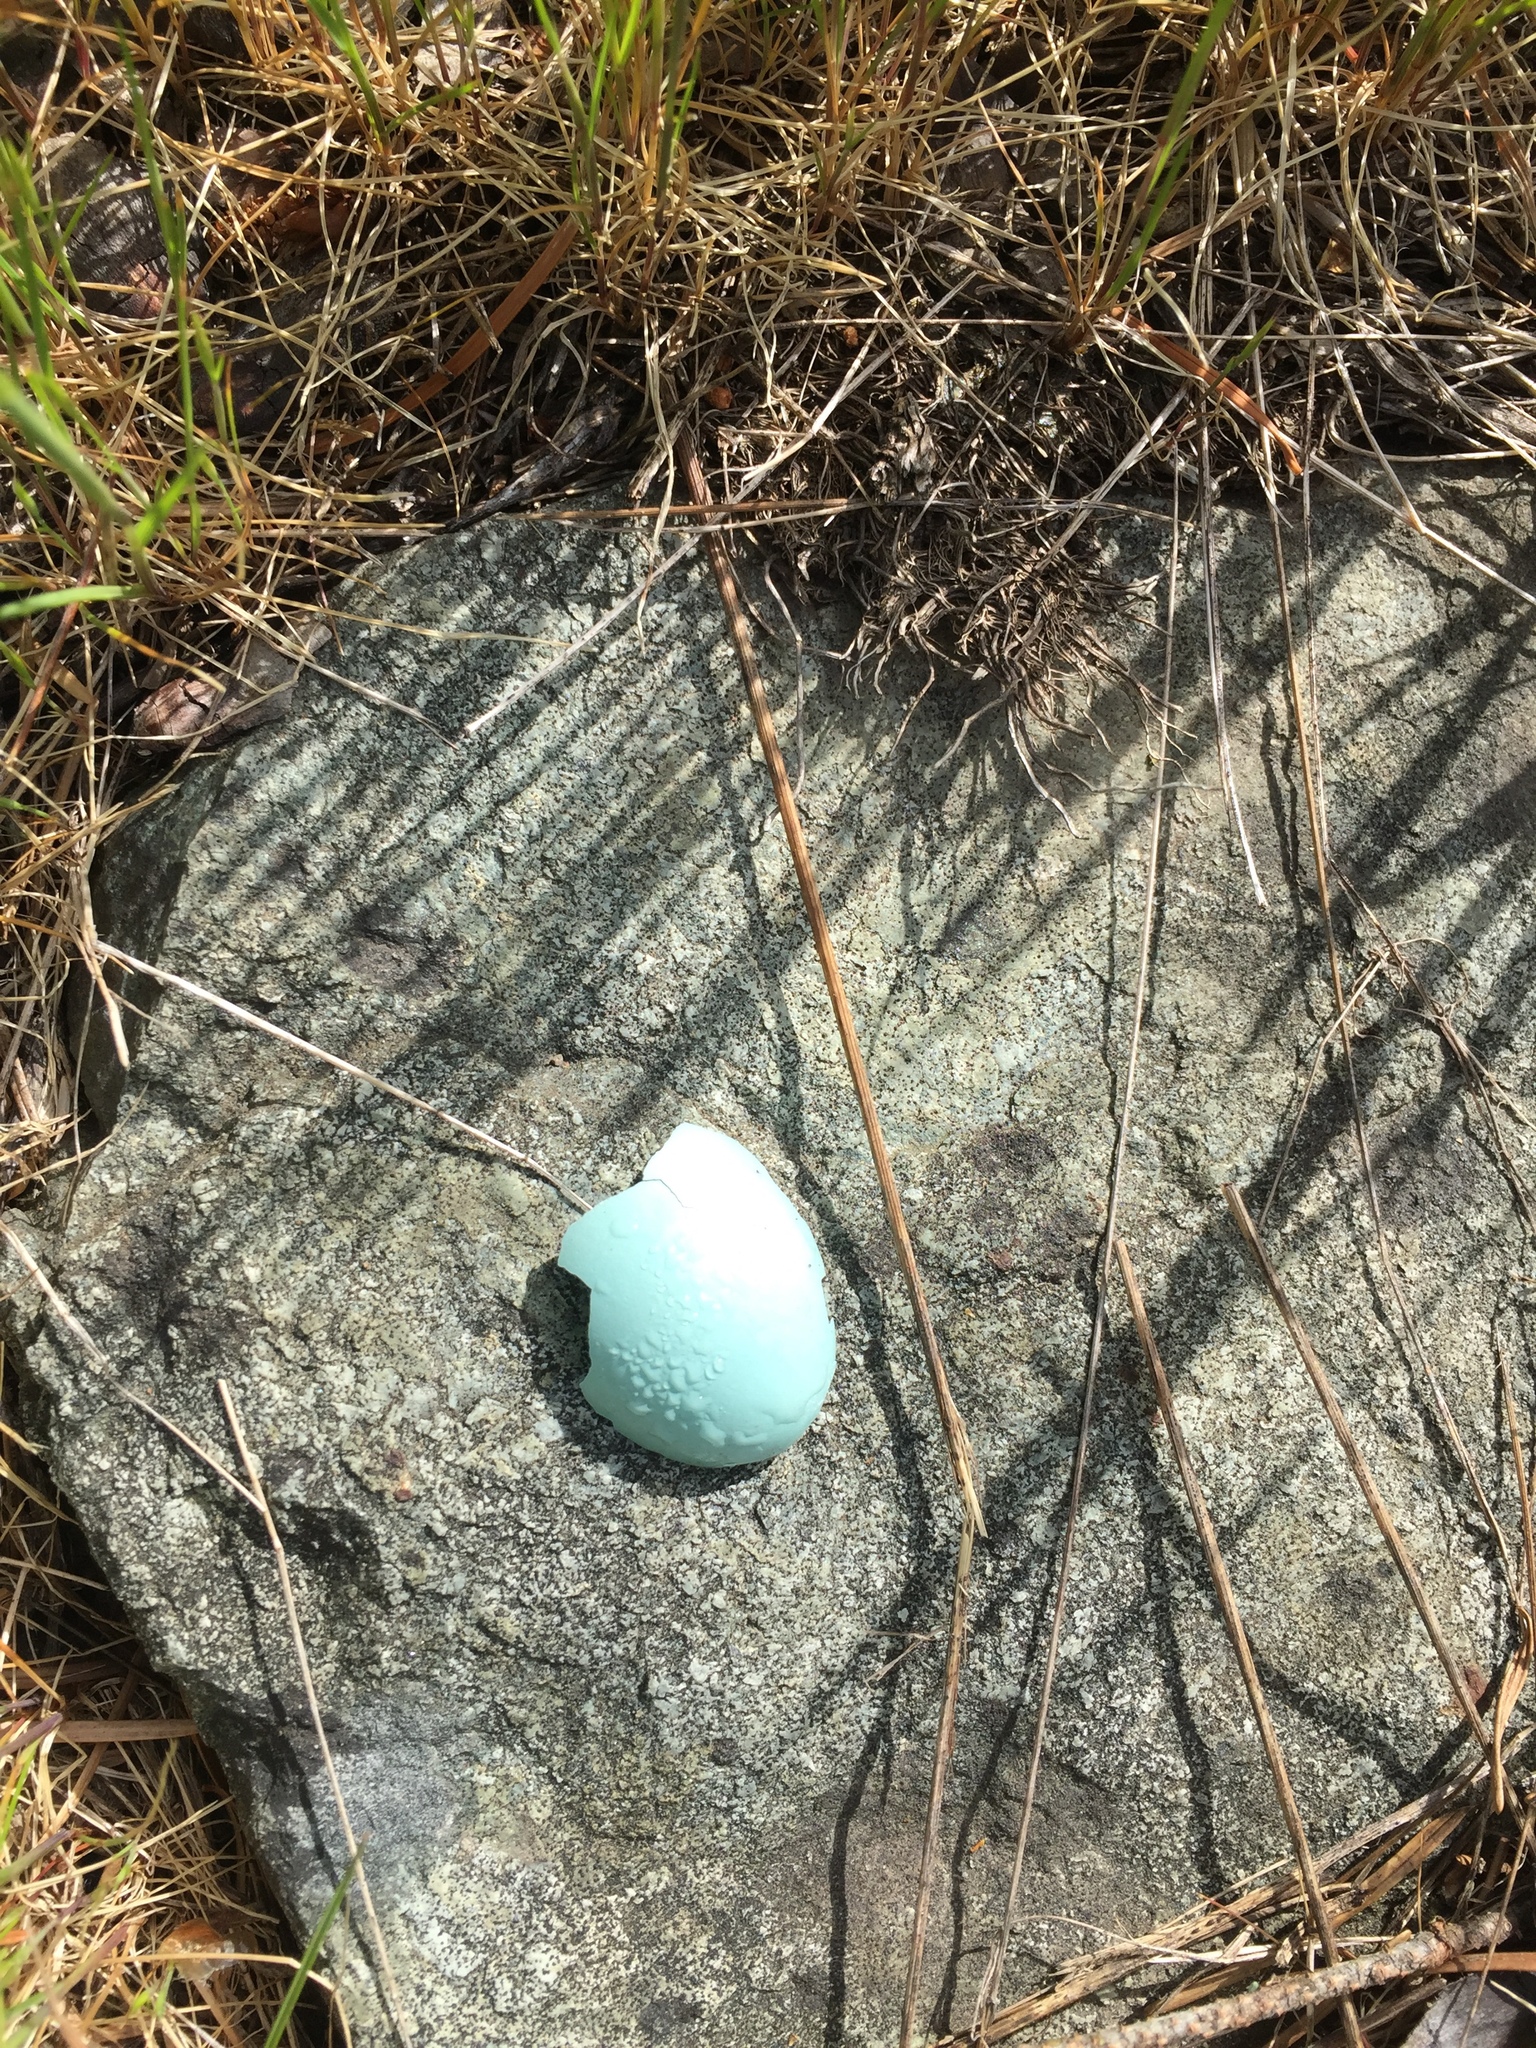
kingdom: Animalia
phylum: Chordata
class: Aves
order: Passeriformes
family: Turdidae
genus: Turdus
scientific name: Turdus migratorius
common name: American robin
